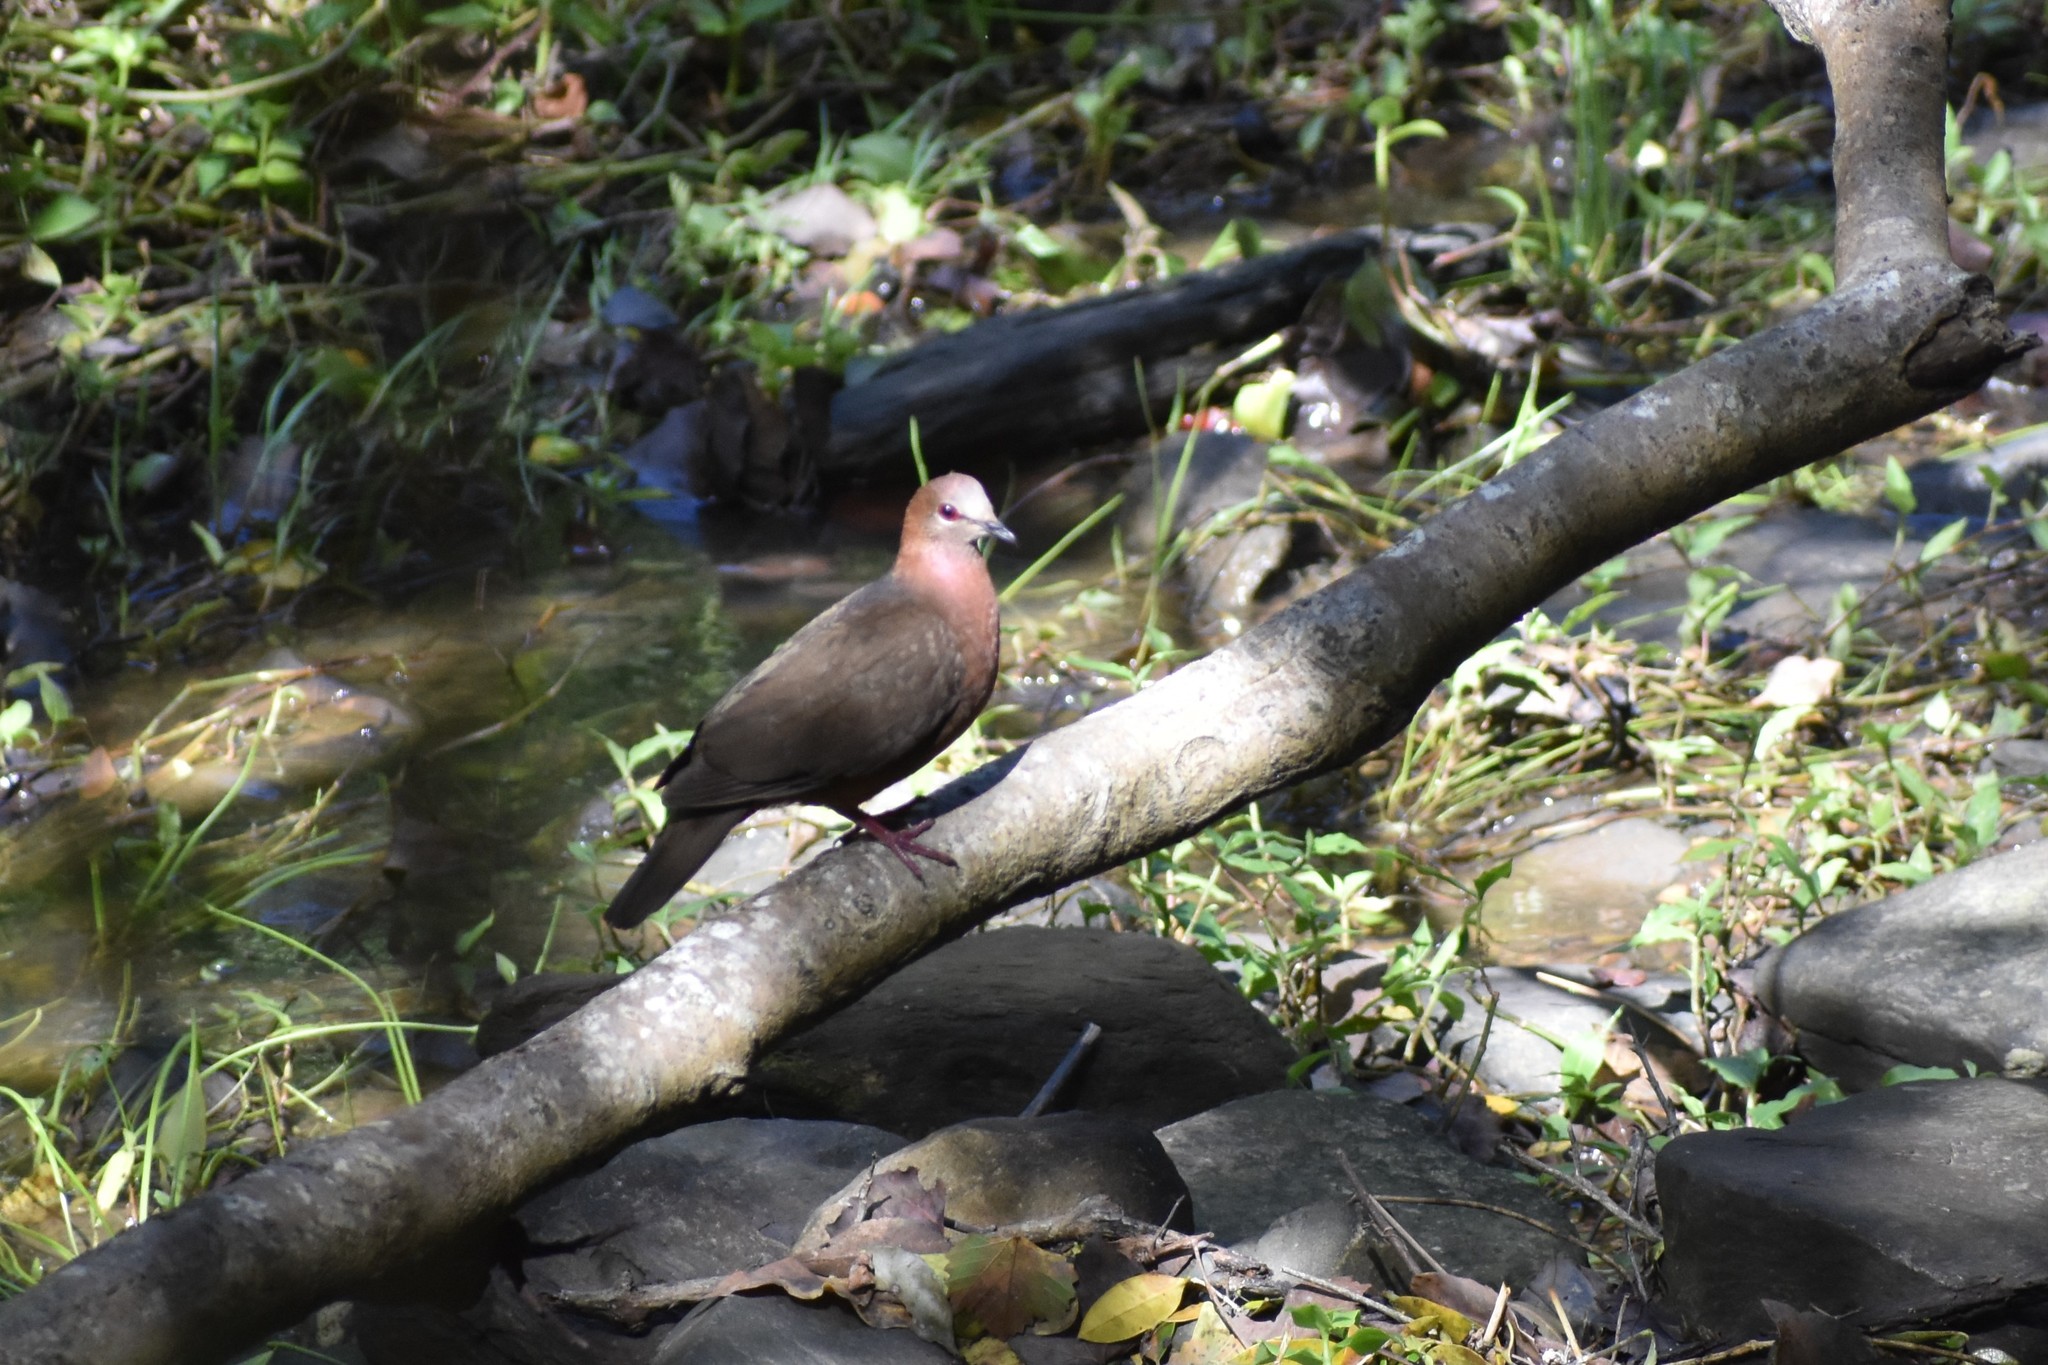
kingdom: Animalia
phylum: Chordata
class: Aves
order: Columbiformes
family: Columbidae
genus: Columba
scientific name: Columba larvata
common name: Lemon dove
